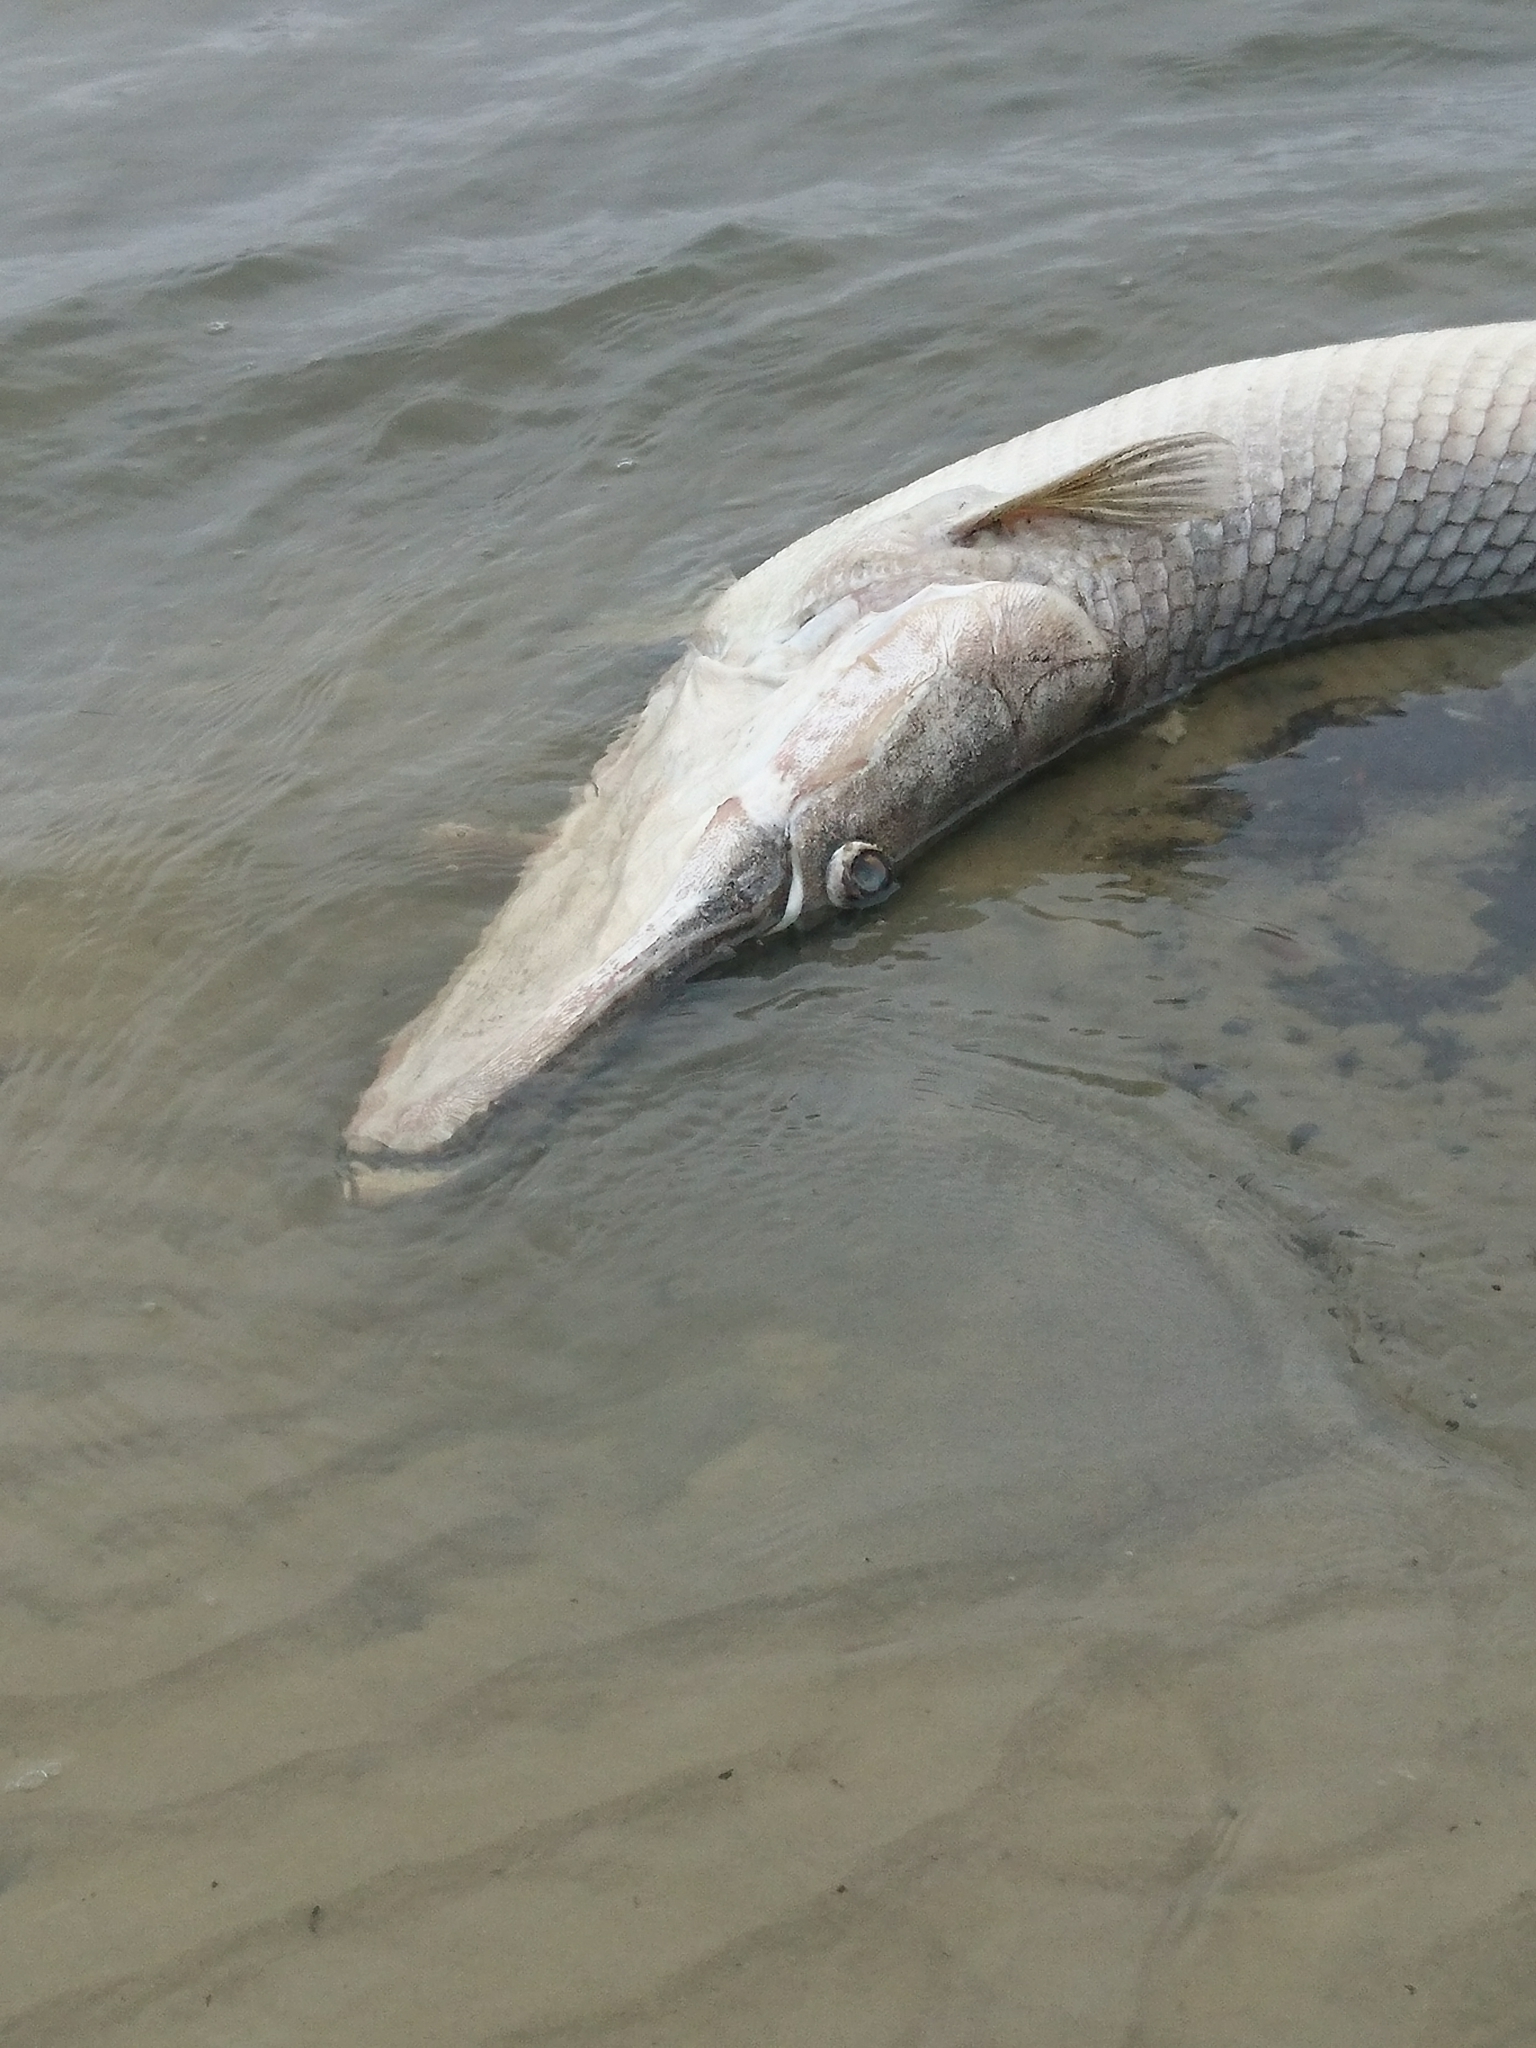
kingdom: Animalia
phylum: Chordata
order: Lepisosteiformes
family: Lepisosteidae
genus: Atractosteus
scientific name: Atractosteus spatula
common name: Alligator gar
